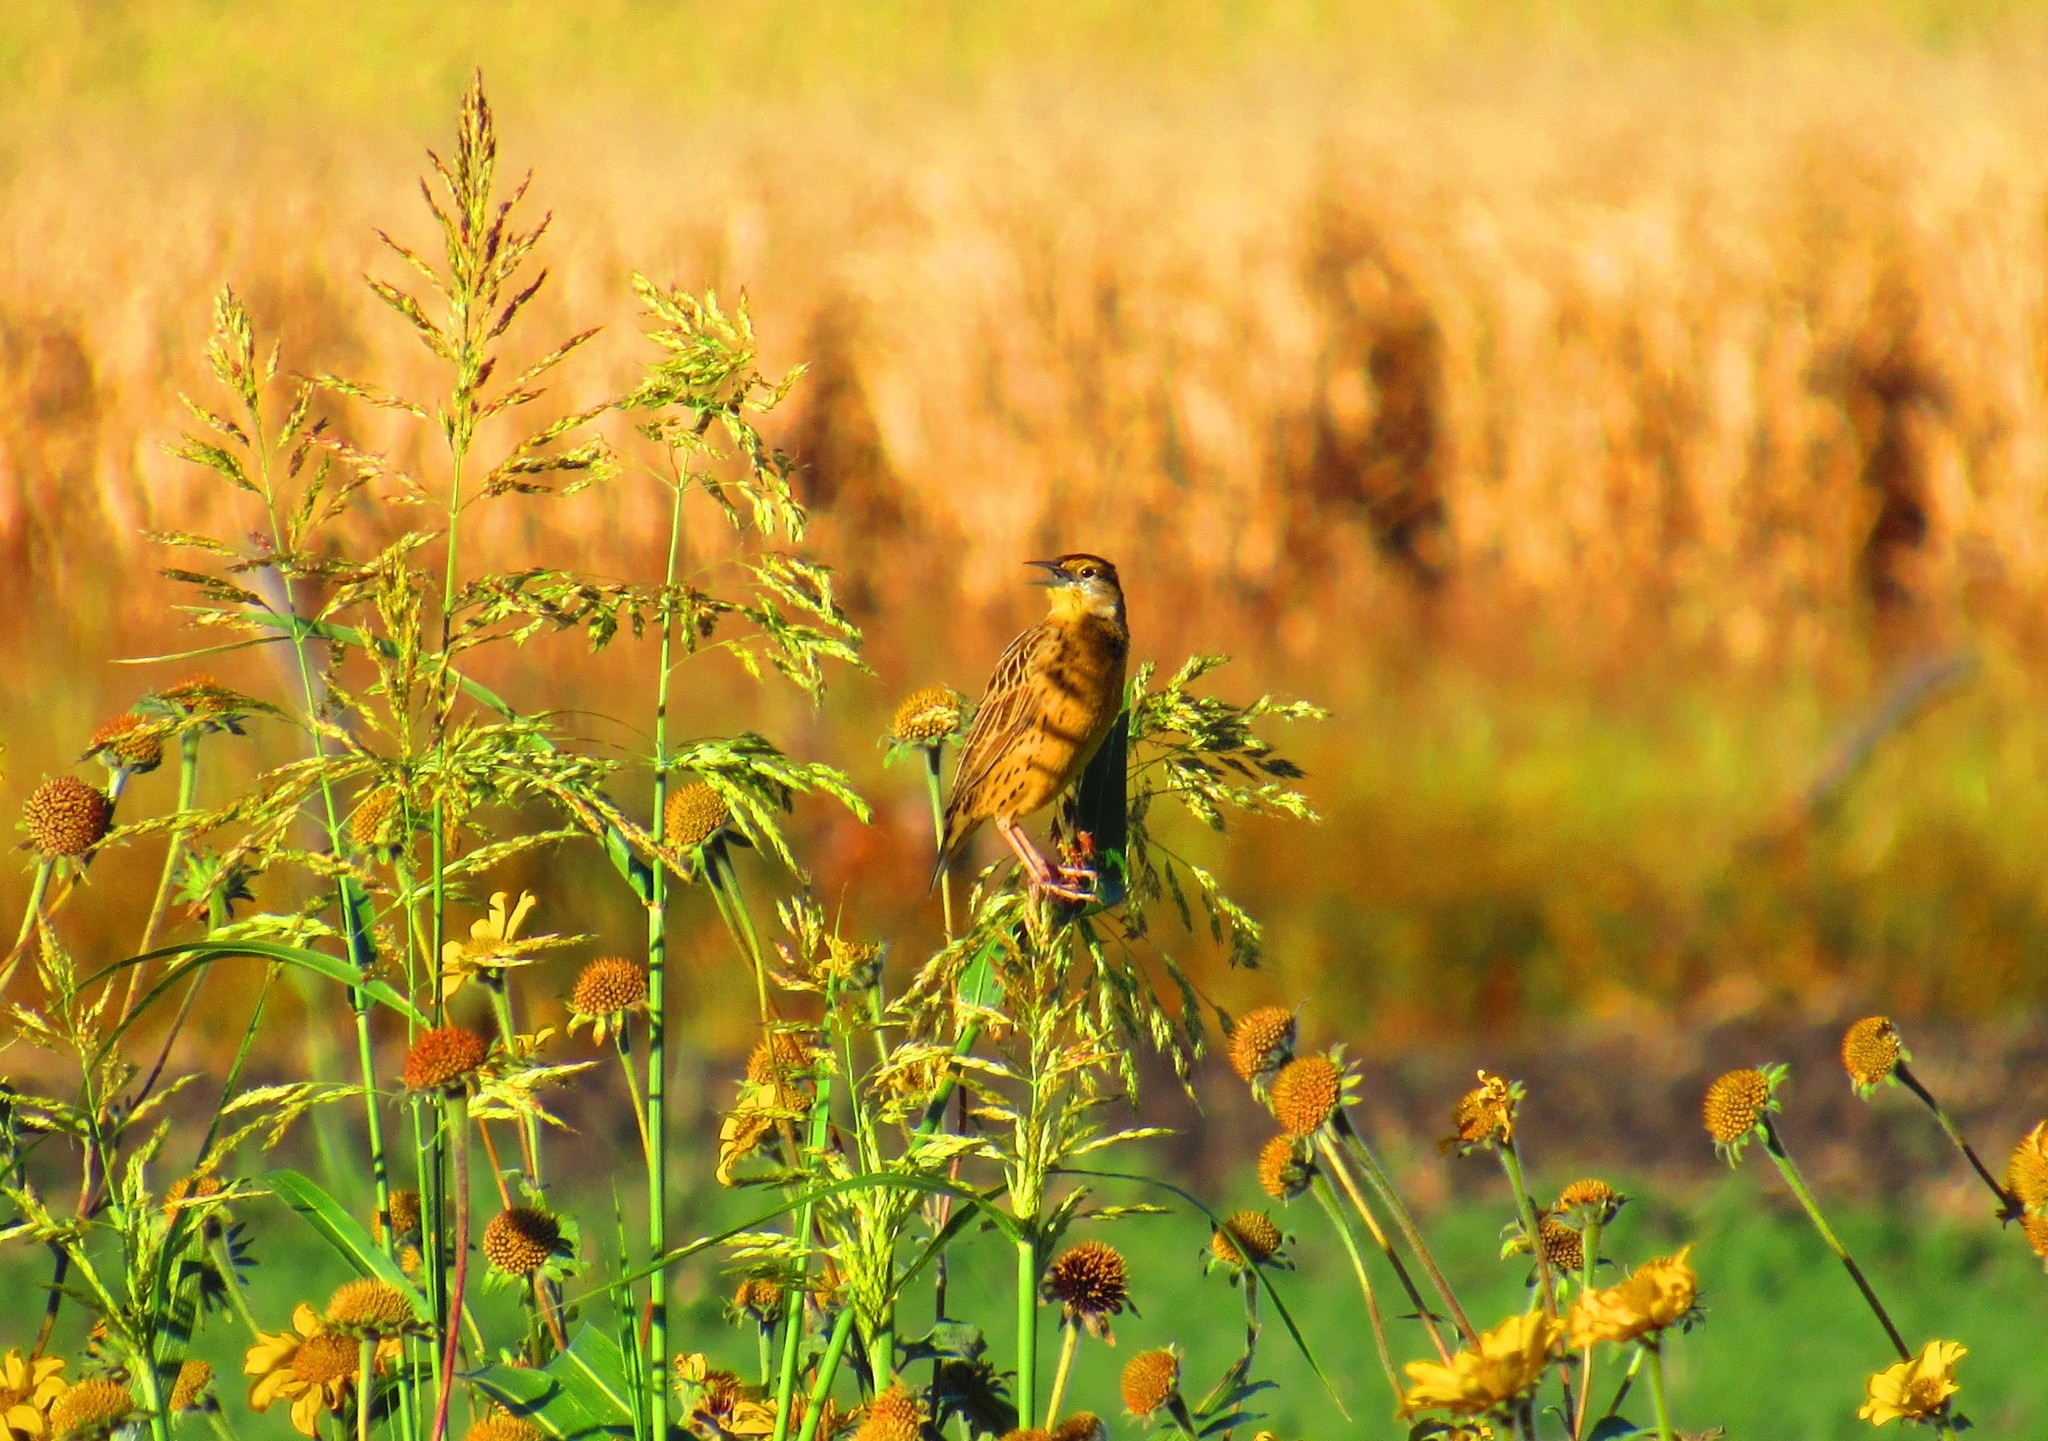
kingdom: Animalia
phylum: Chordata
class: Aves
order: Passeriformes
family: Icteridae
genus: Sturnella
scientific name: Sturnella lilianae
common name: Lilian's meadowlark
